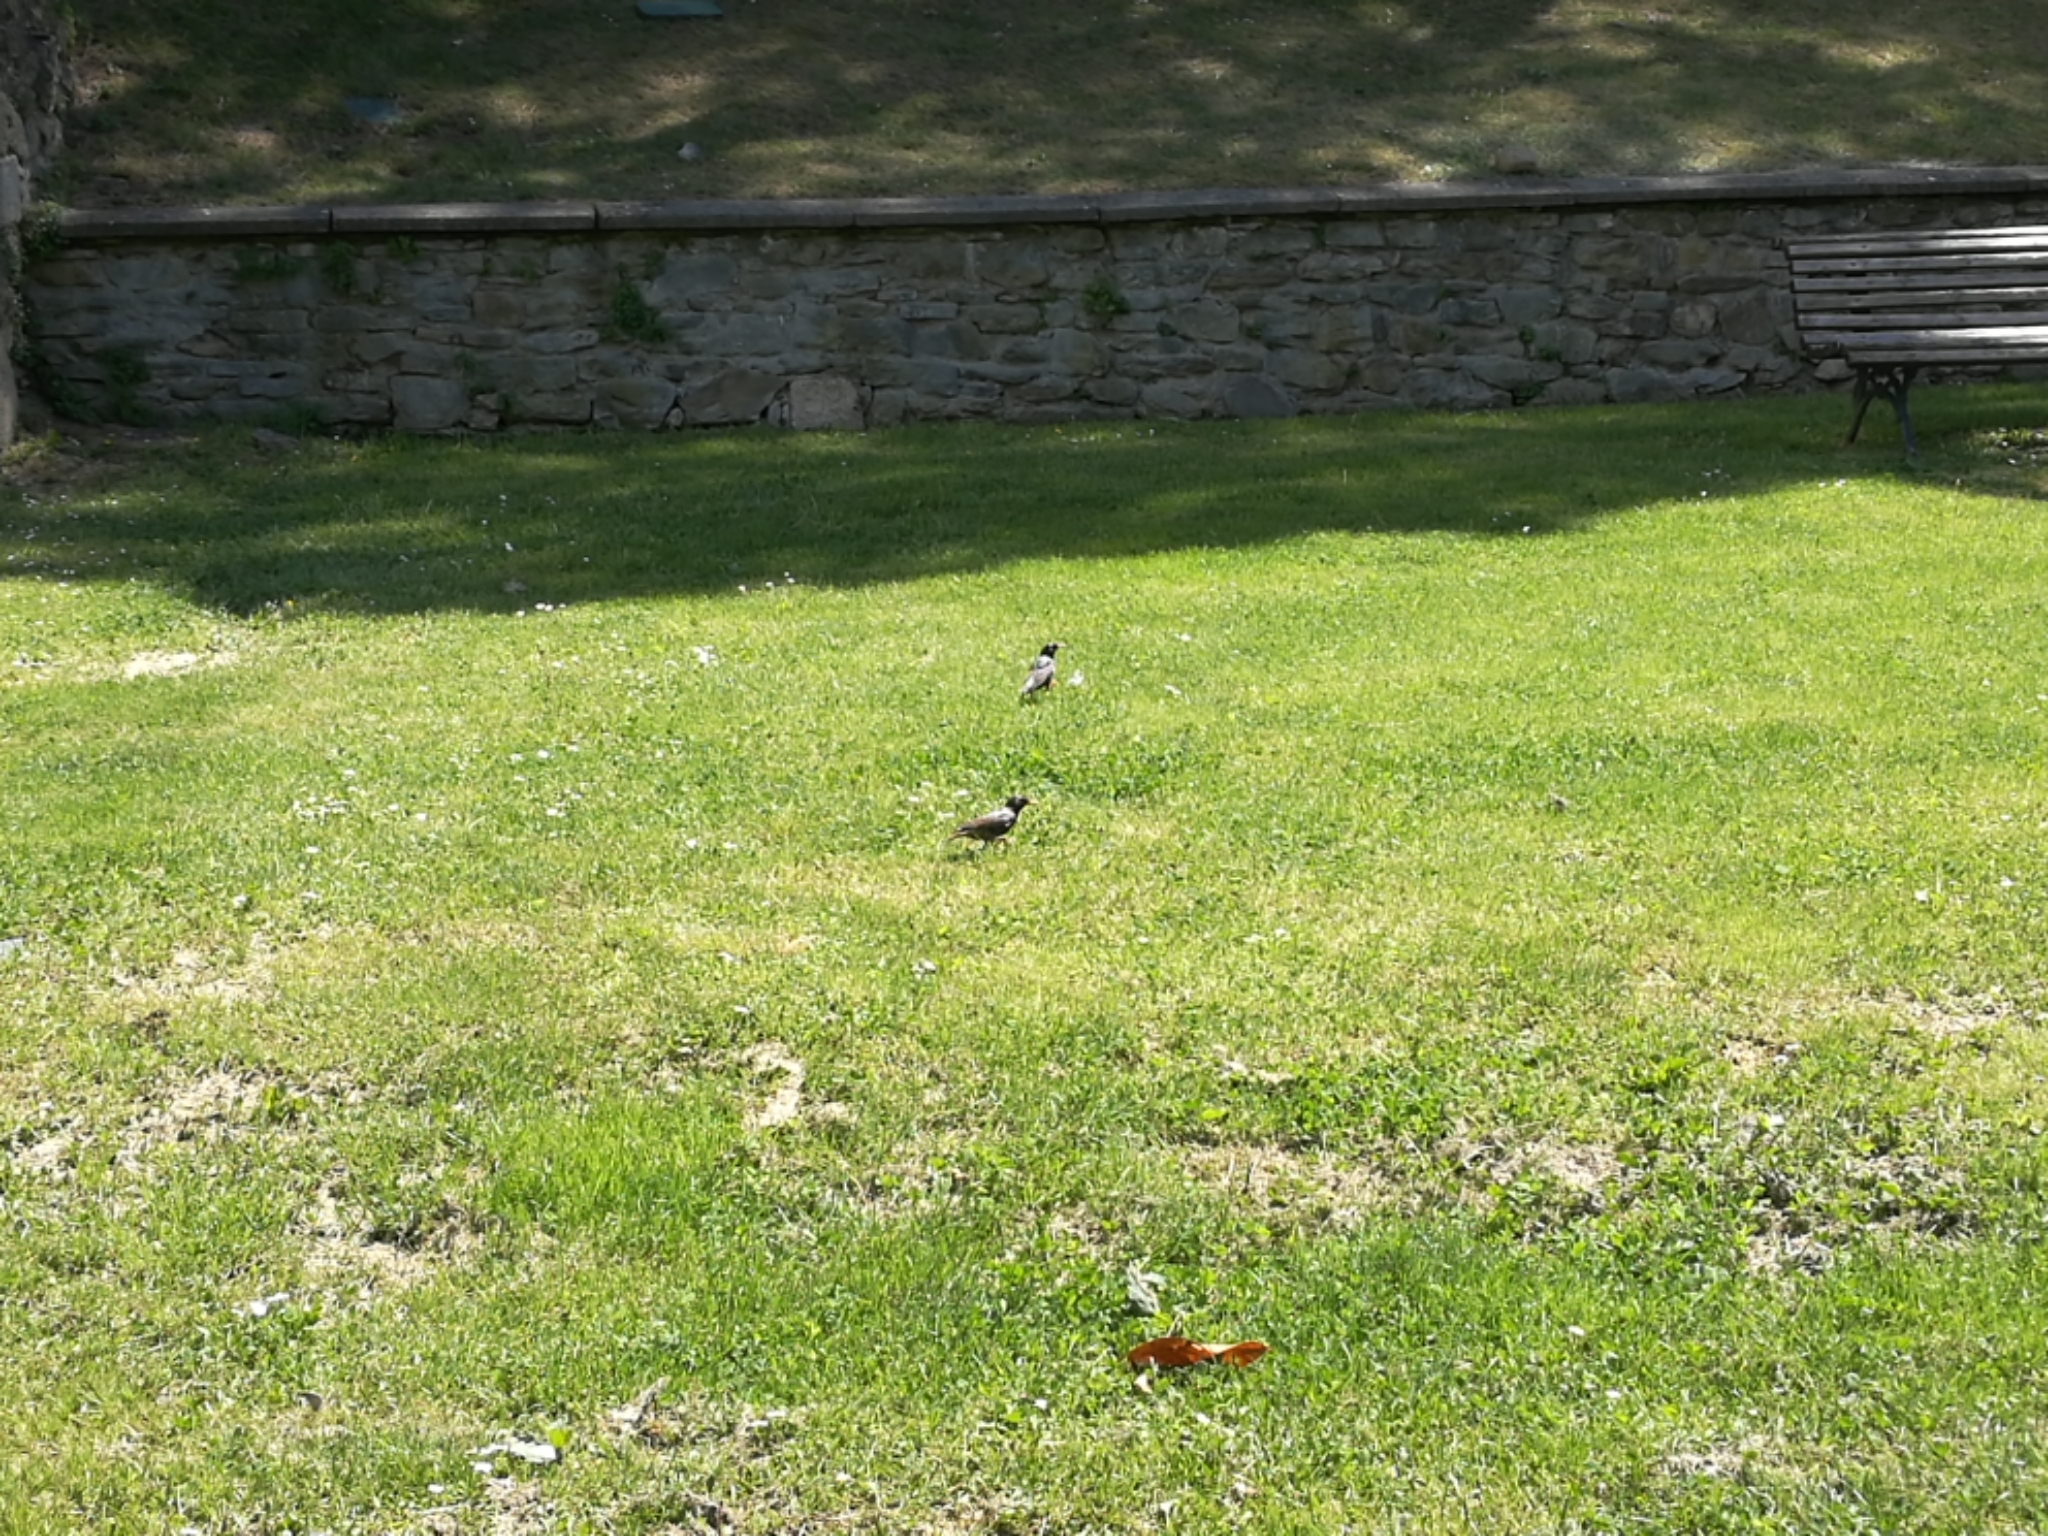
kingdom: Animalia
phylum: Chordata
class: Aves
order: Passeriformes
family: Sturnidae
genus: Sturnus
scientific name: Sturnus vulgaris
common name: Common starling
